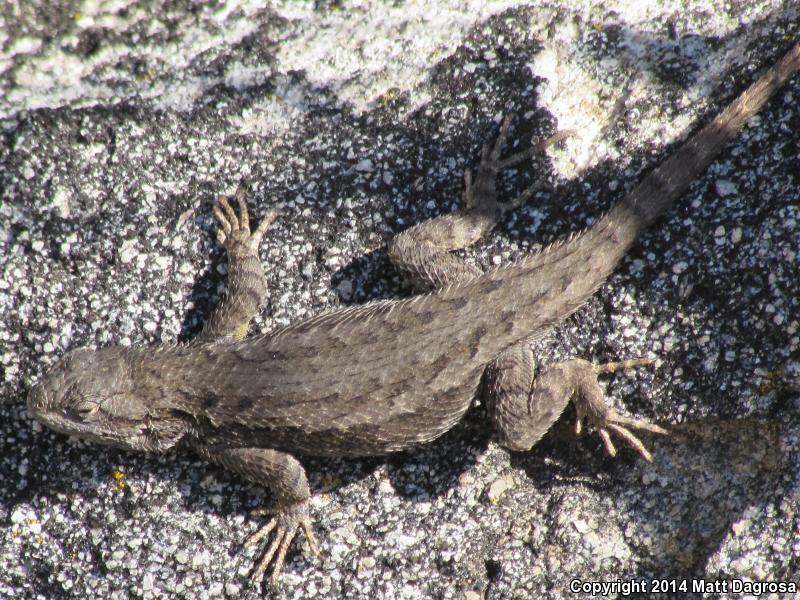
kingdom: Animalia
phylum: Chordata
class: Squamata
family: Phrynosomatidae
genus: Sceloporus
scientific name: Sceloporus occidentalis
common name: Western fence lizard
